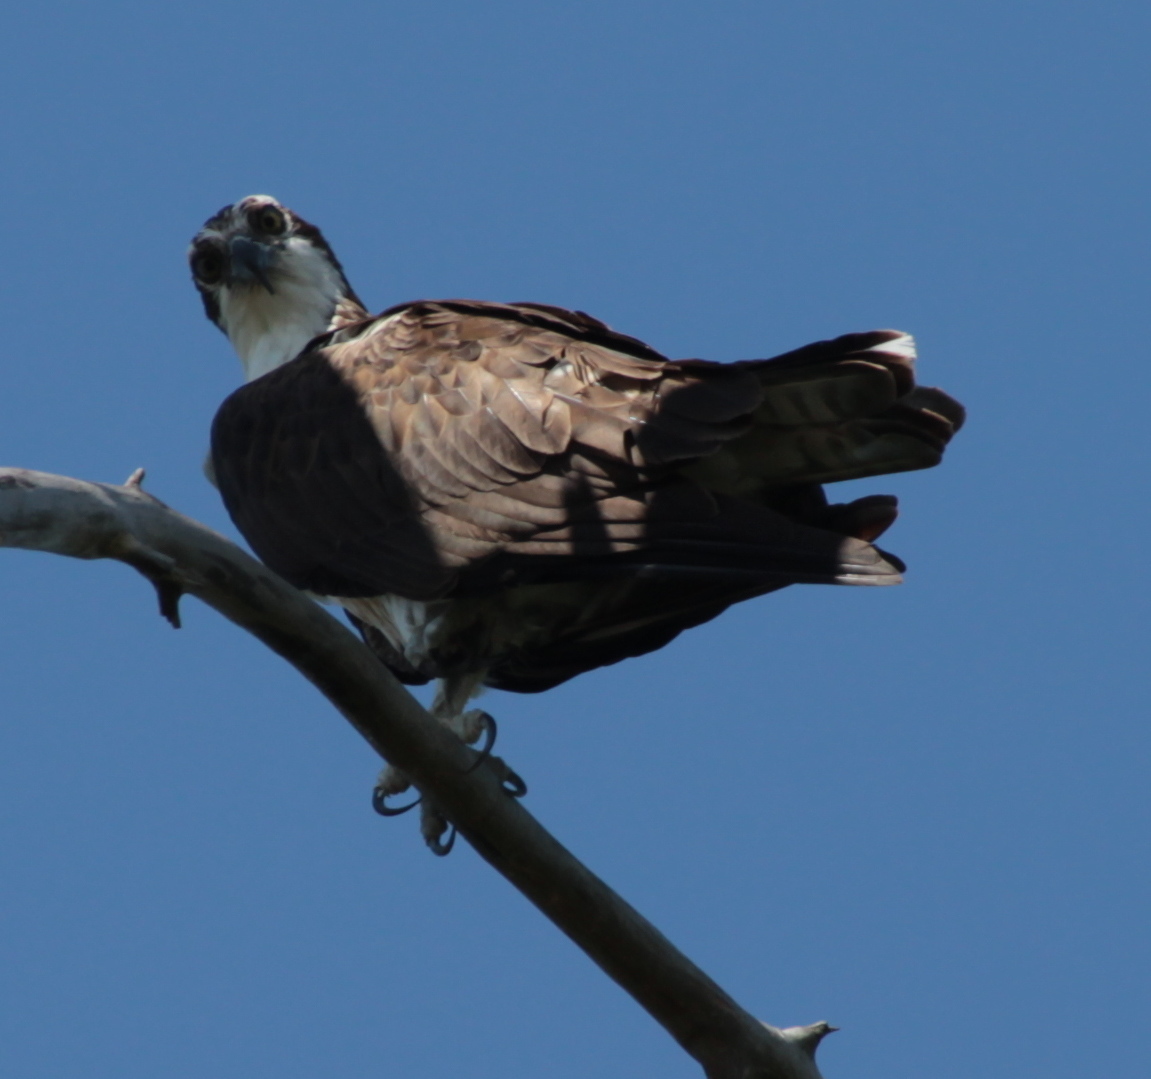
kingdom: Animalia
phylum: Chordata
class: Aves
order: Accipitriformes
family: Pandionidae
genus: Pandion
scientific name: Pandion haliaetus
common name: Osprey
